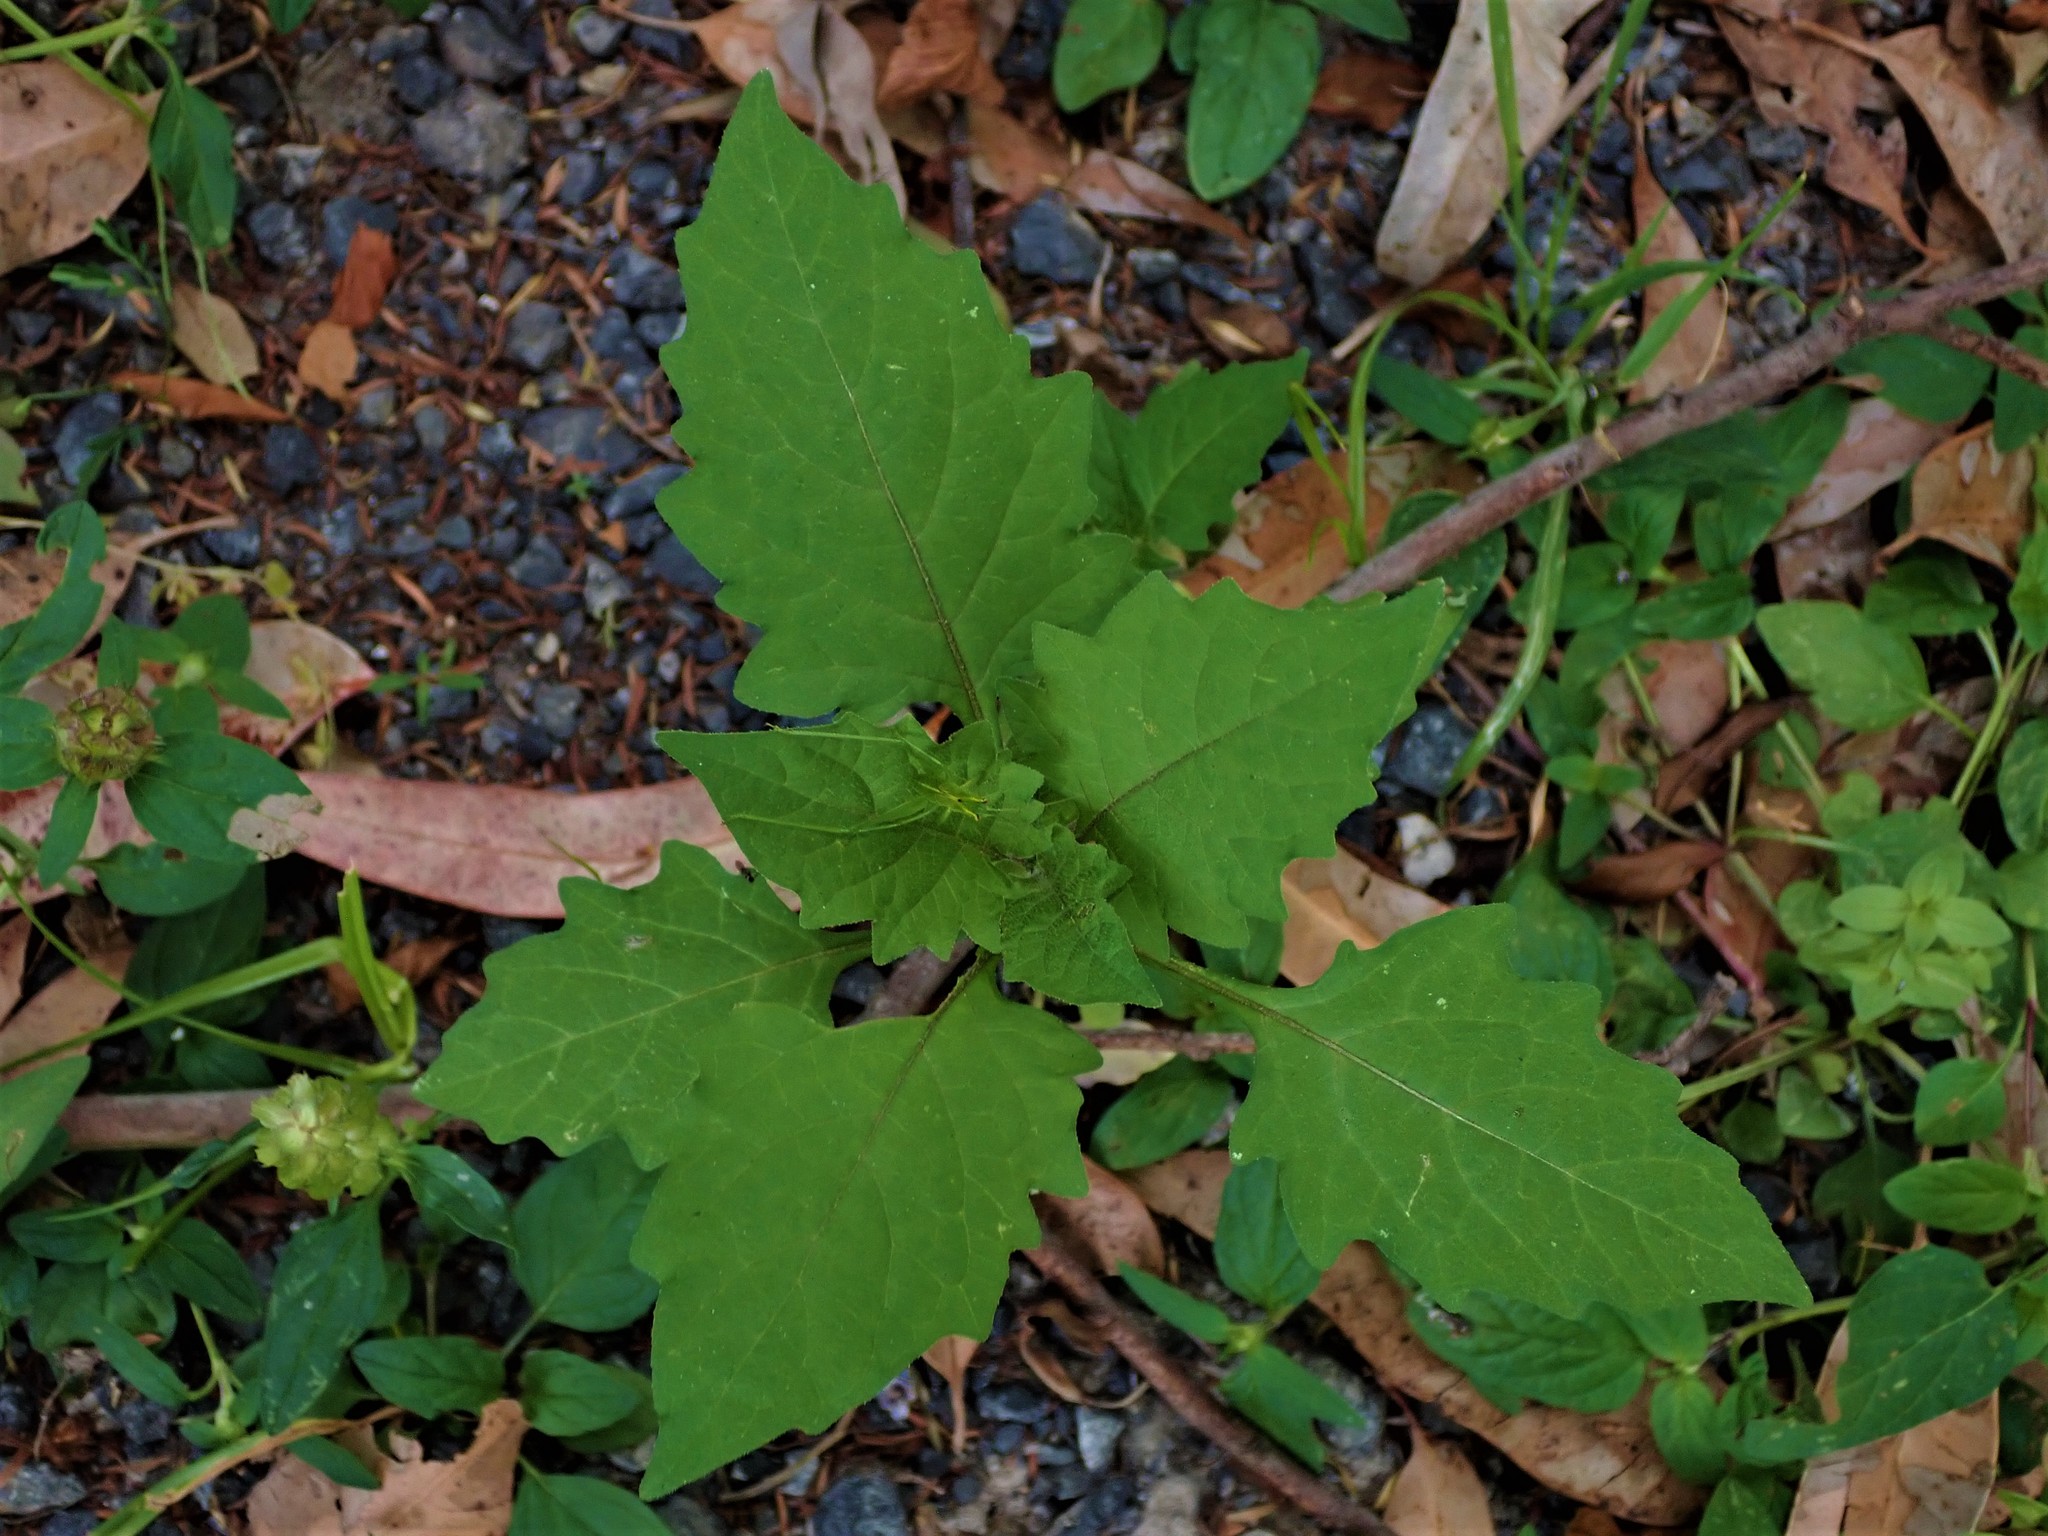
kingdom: Animalia
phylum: Arthropoda
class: Insecta
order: Orthoptera
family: Tettigoniidae
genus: Caedicia
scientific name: Caedicia simplex
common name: Common garden katydid
